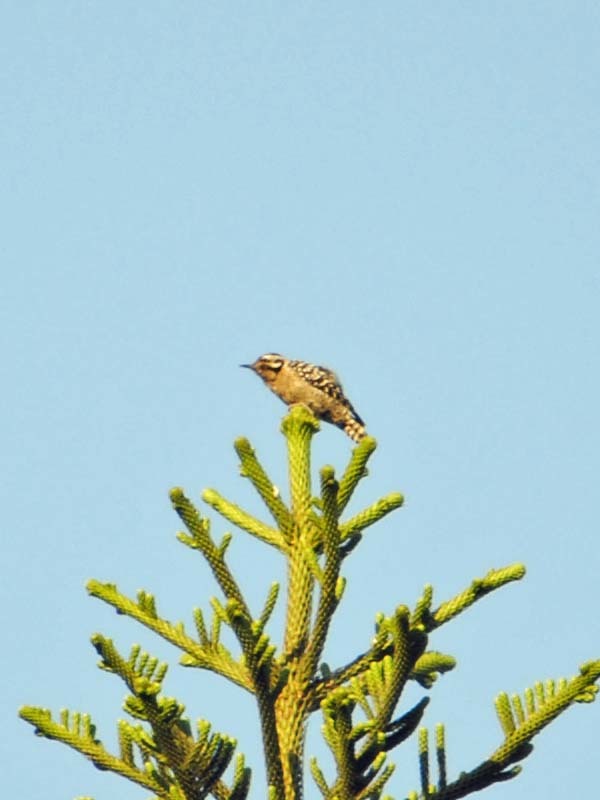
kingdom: Animalia
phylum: Chordata
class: Aves
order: Piciformes
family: Picidae
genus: Dryobates
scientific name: Dryobates scalaris
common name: Ladder-backed woodpecker
